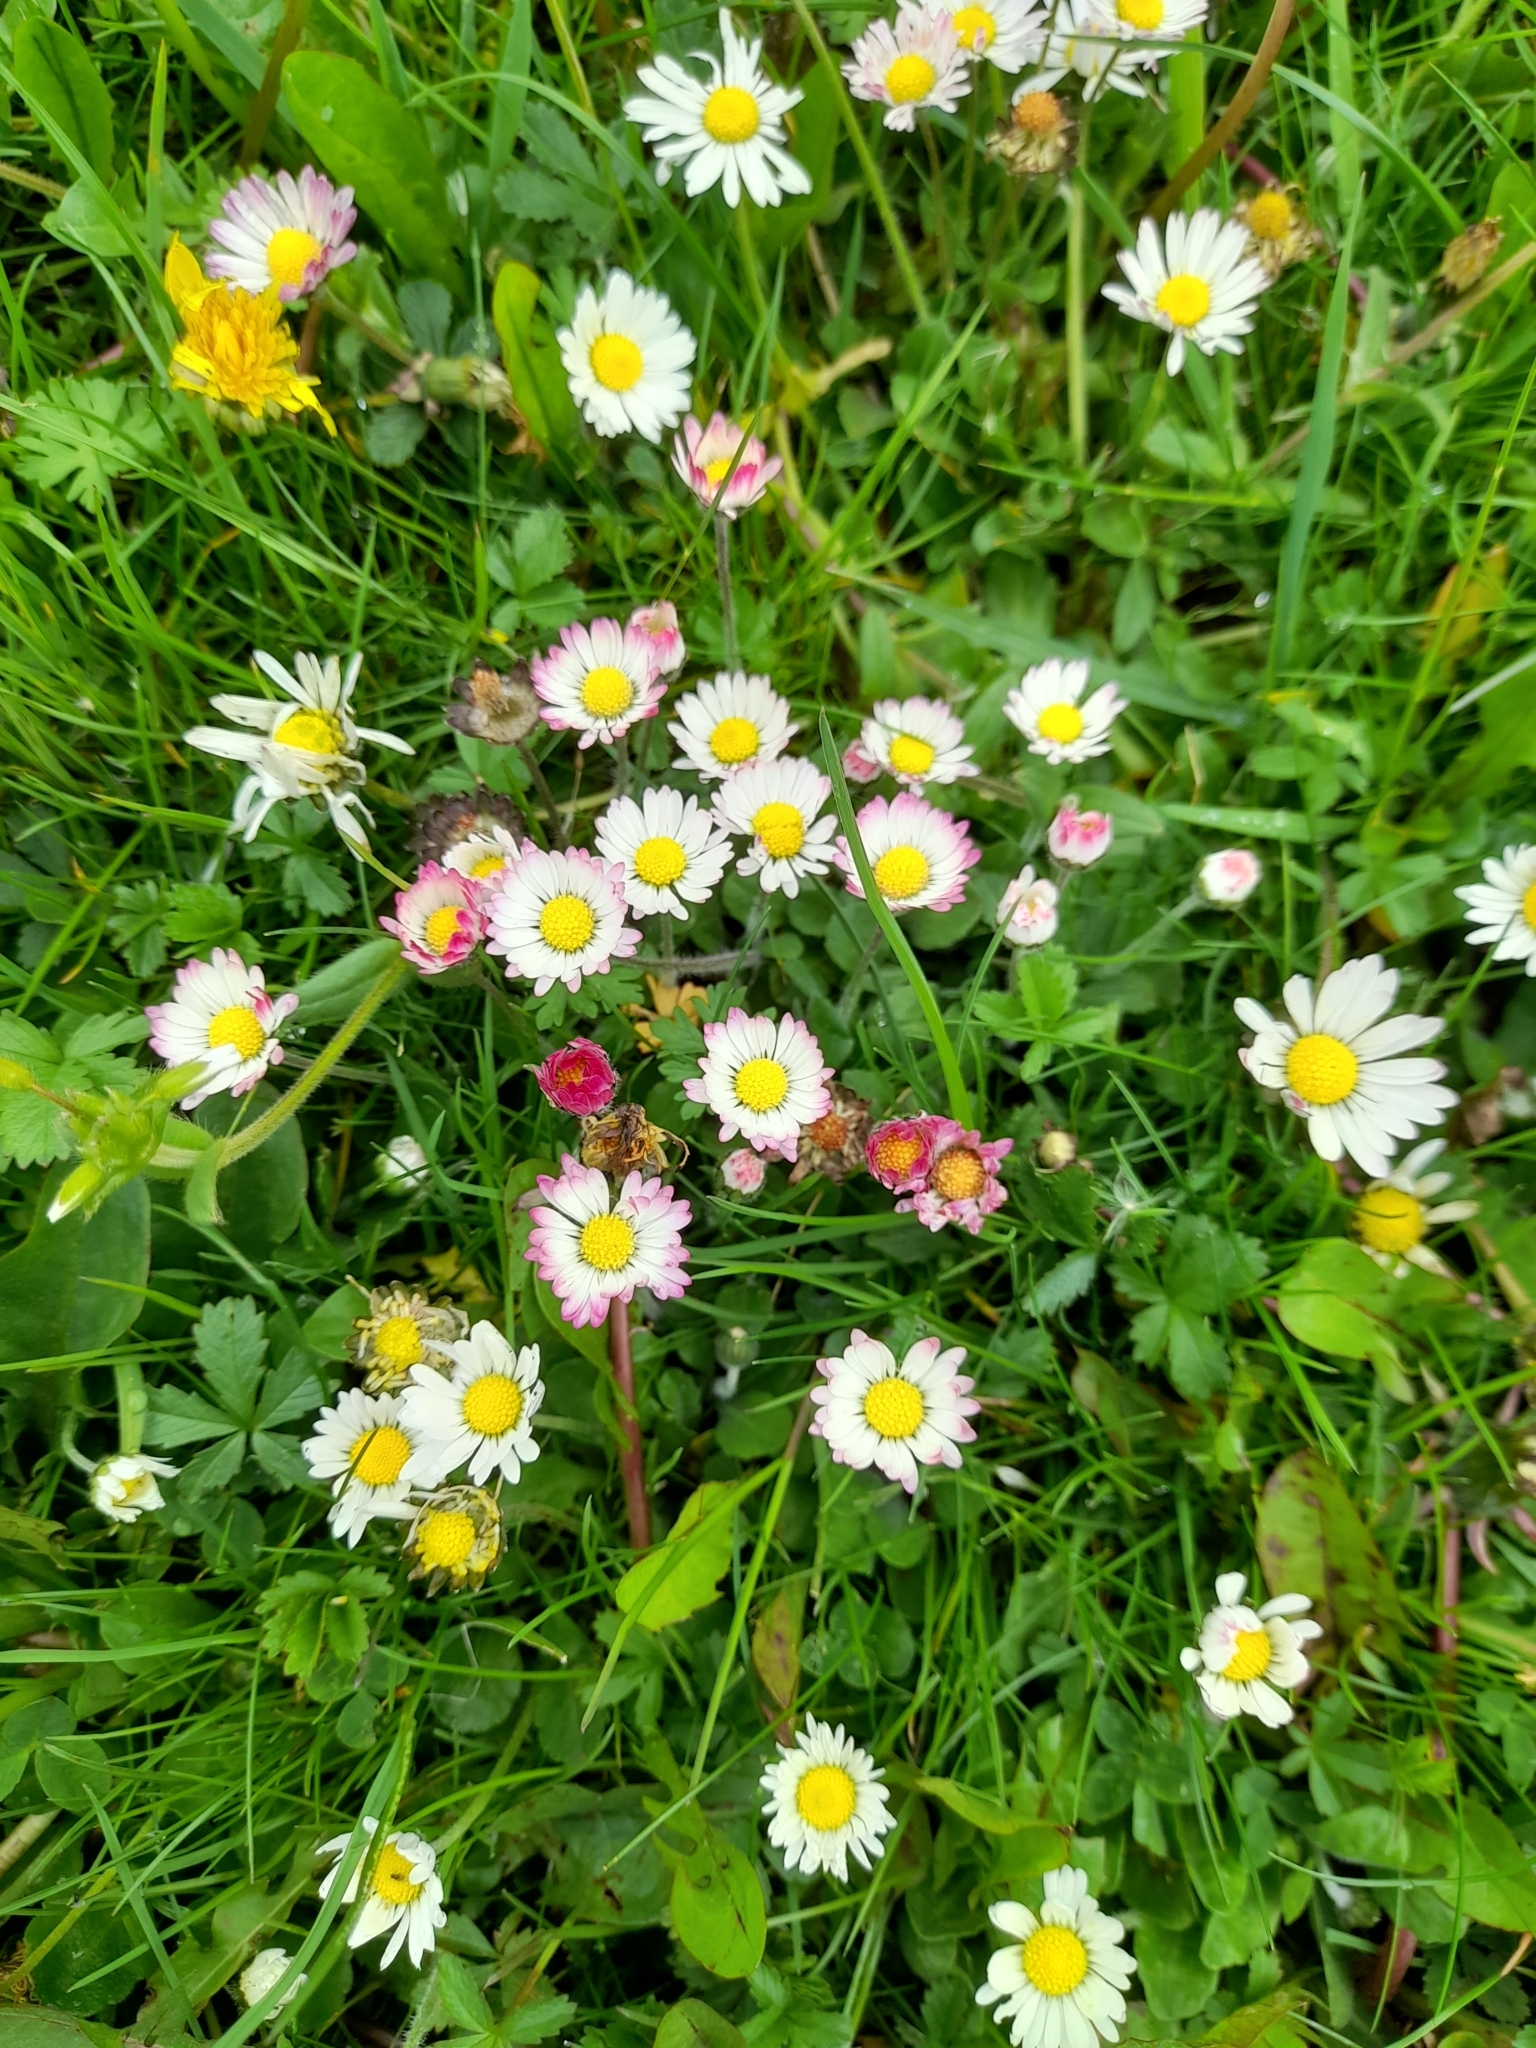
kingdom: Plantae
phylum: Tracheophyta
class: Magnoliopsida
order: Asterales
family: Asteraceae
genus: Bellis
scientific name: Bellis perennis
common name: Lawndaisy
